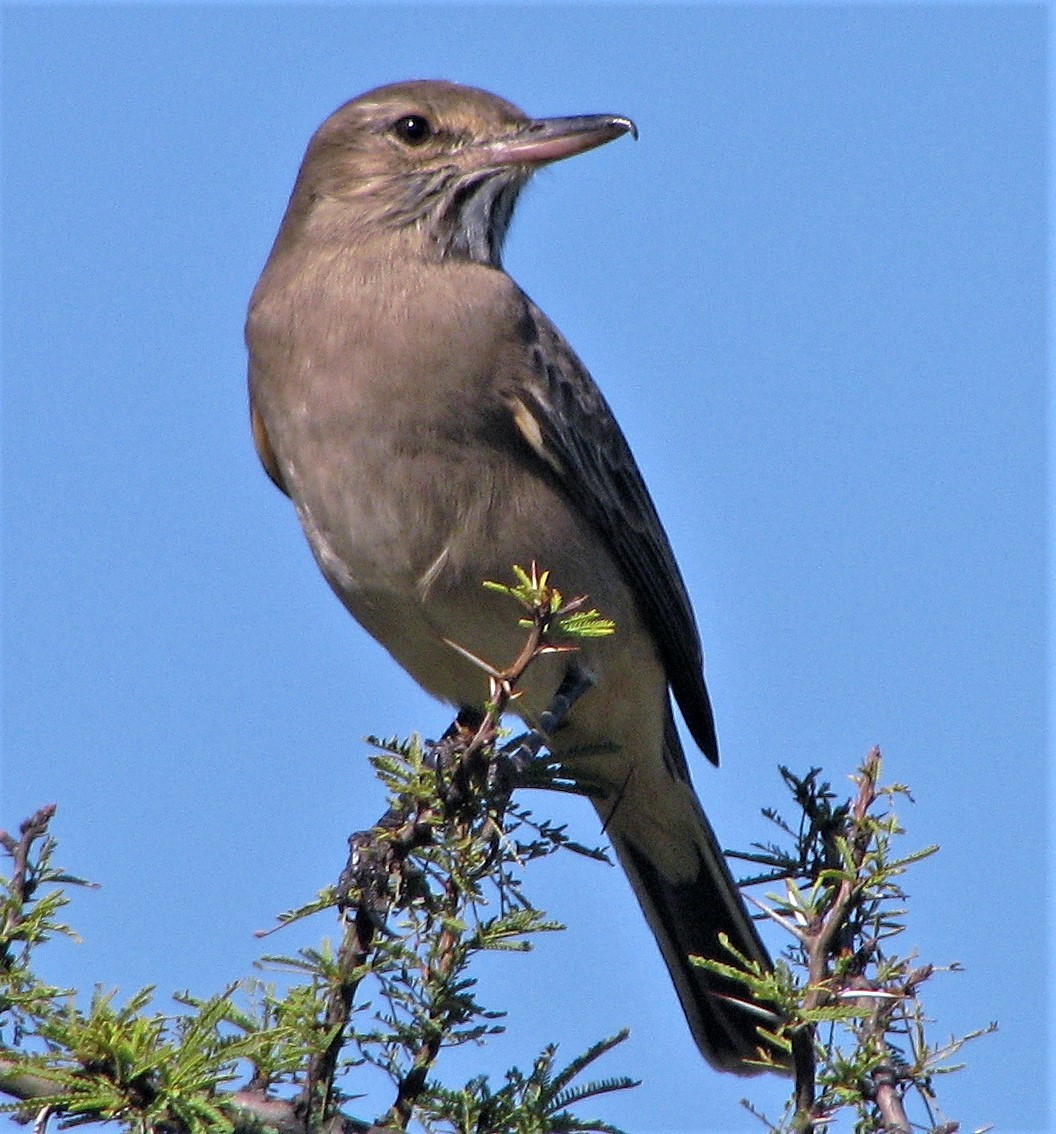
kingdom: Animalia
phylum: Chordata
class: Aves
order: Passeriformes
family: Tyrannidae
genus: Agriornis
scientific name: Agriornis micropterus
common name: Grey-bellied shrike-tyrant
